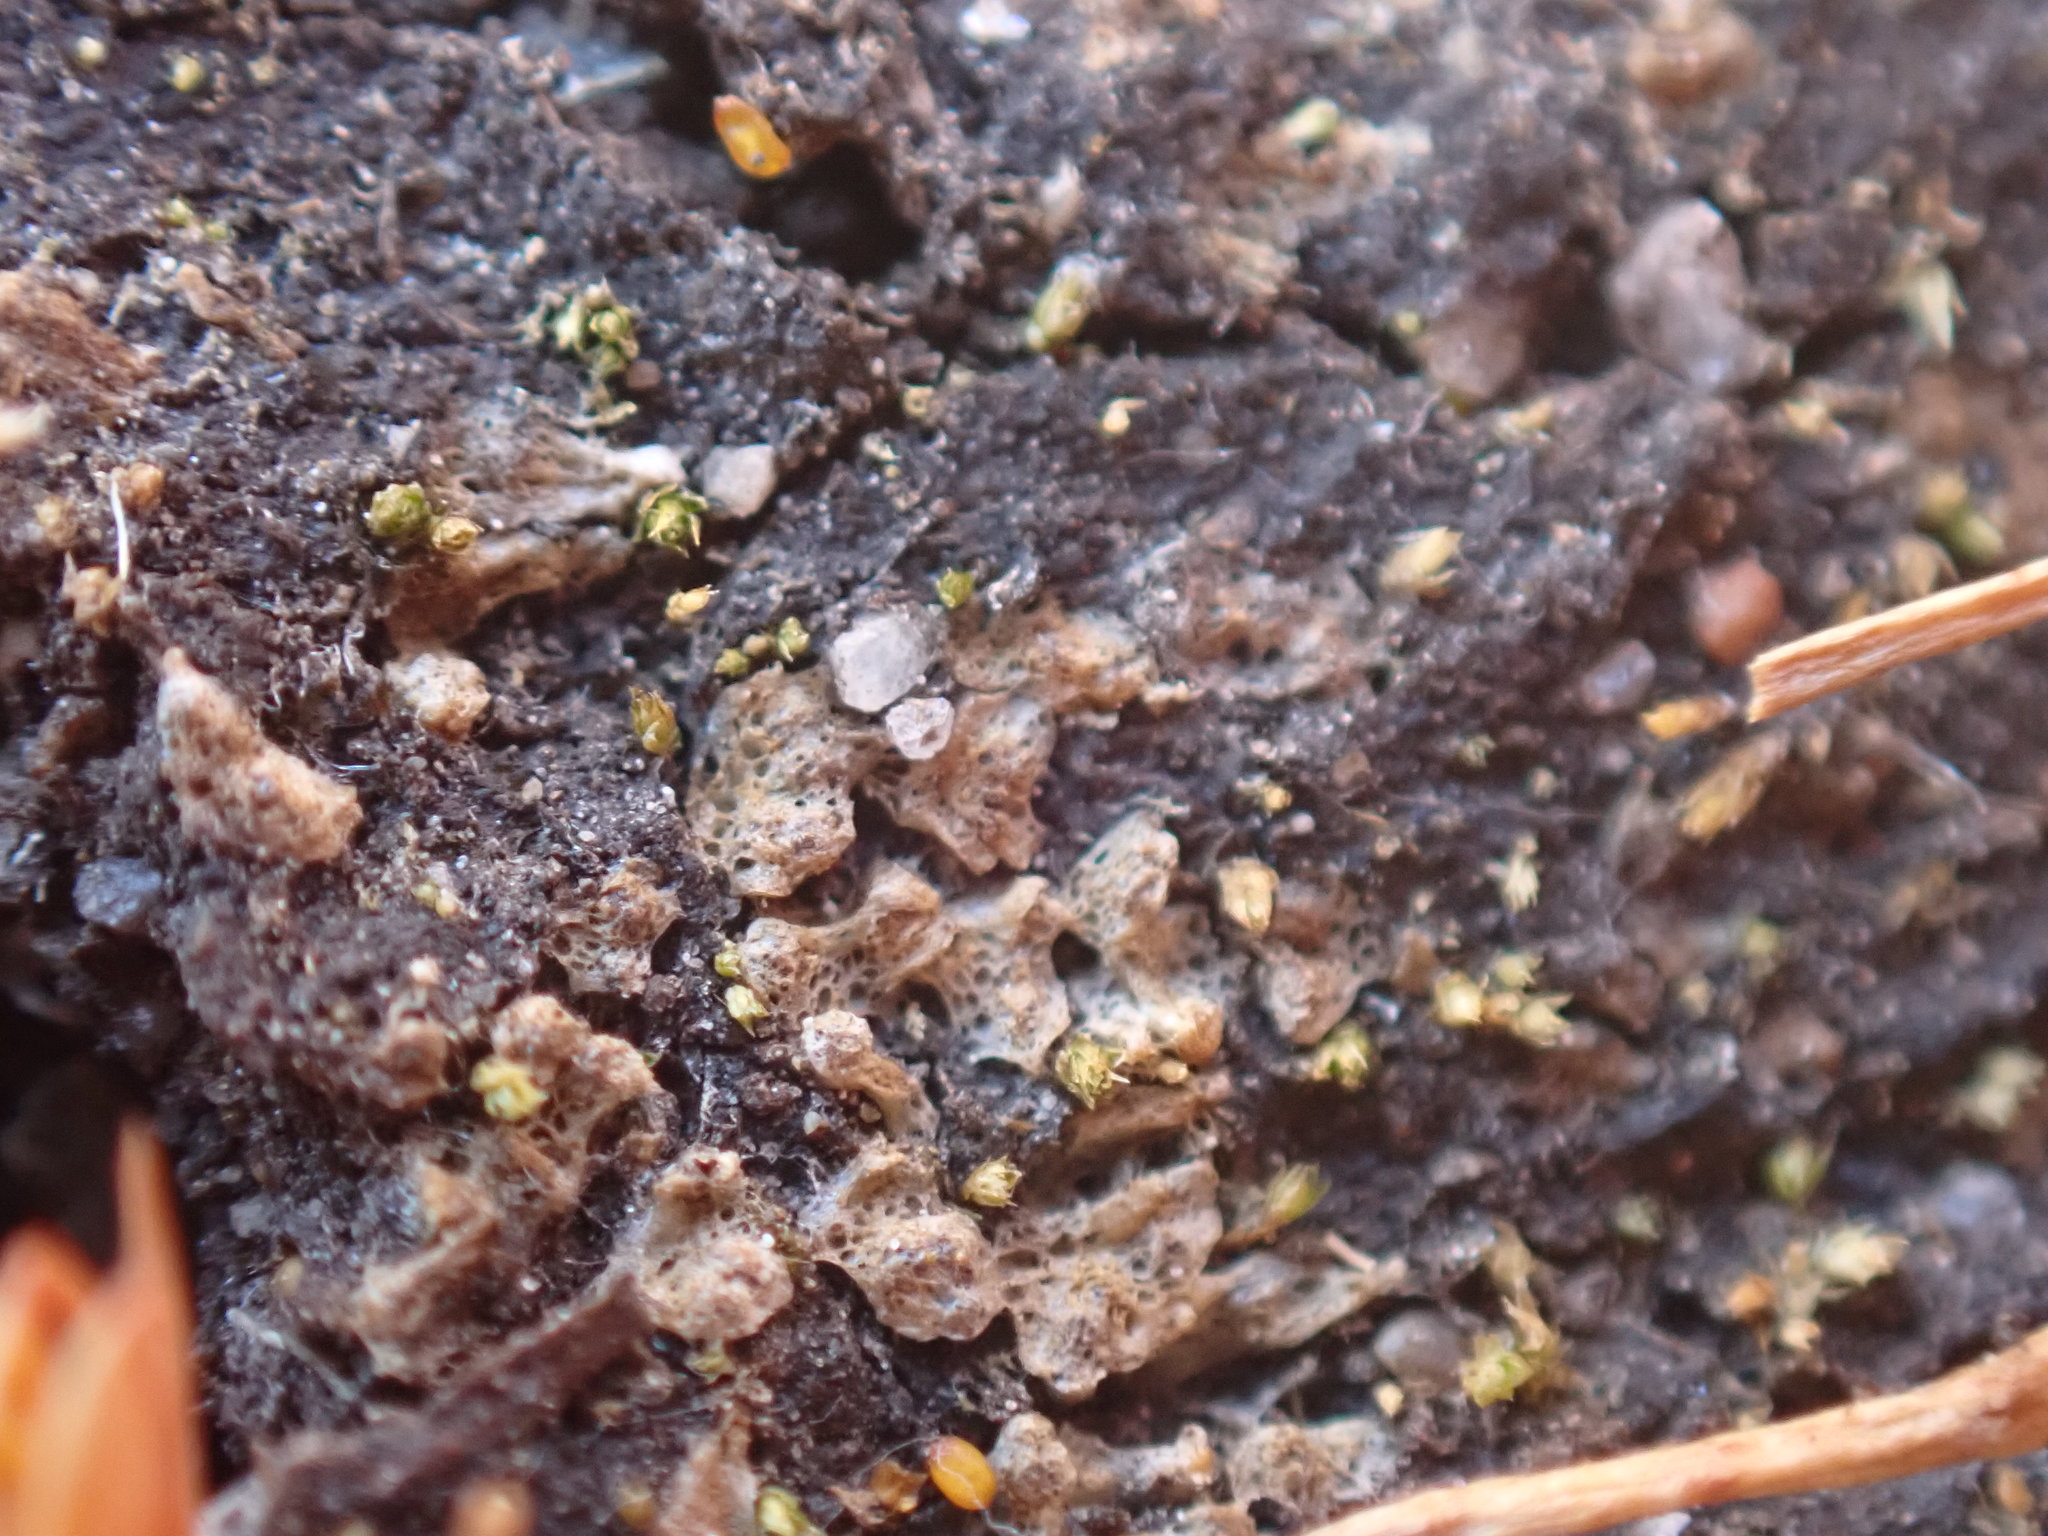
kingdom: Plantae
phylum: Marchantiophyta
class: Marchantiopsida
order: Marchantiales
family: Ricciaceae
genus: Riccia
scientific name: Riccia cavernosa
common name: Cavernous crystalwort
